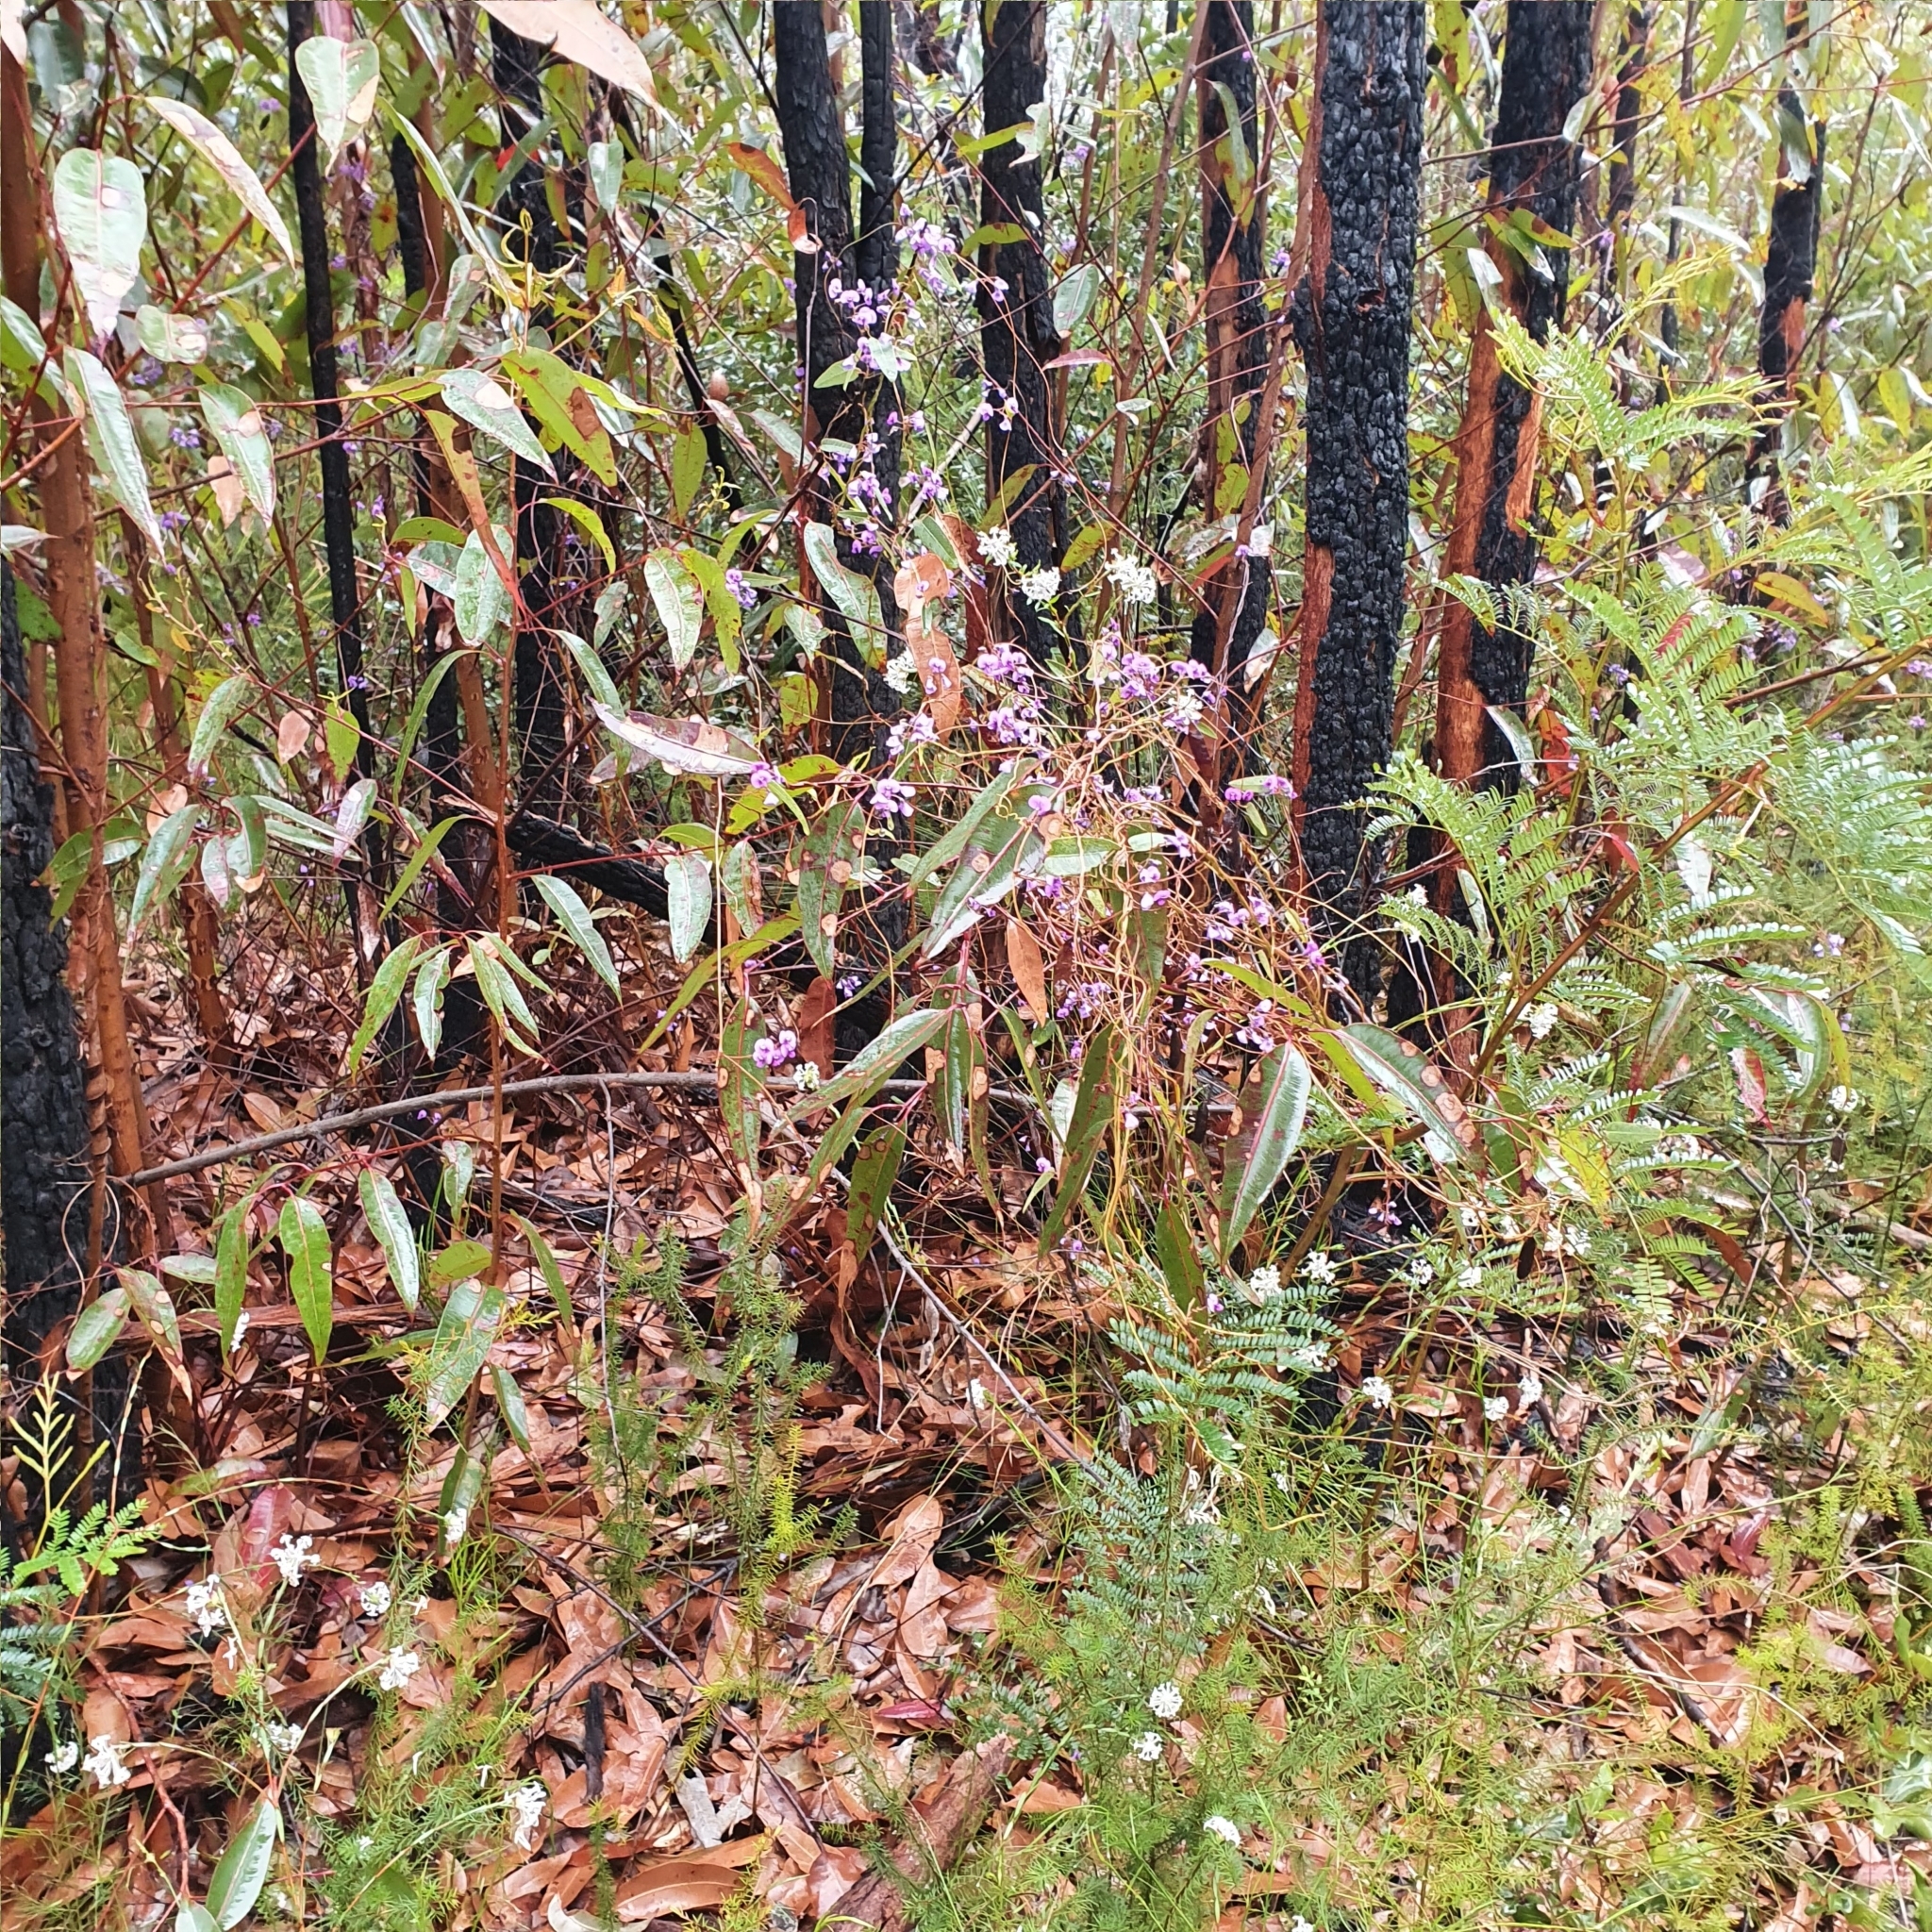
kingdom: Plantae
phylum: Tracheophyta
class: Magnoliopsida
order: Fabales
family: Fabaceae
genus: Hardenbergia
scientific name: Hardenbergia violacea
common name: Coral-pea
